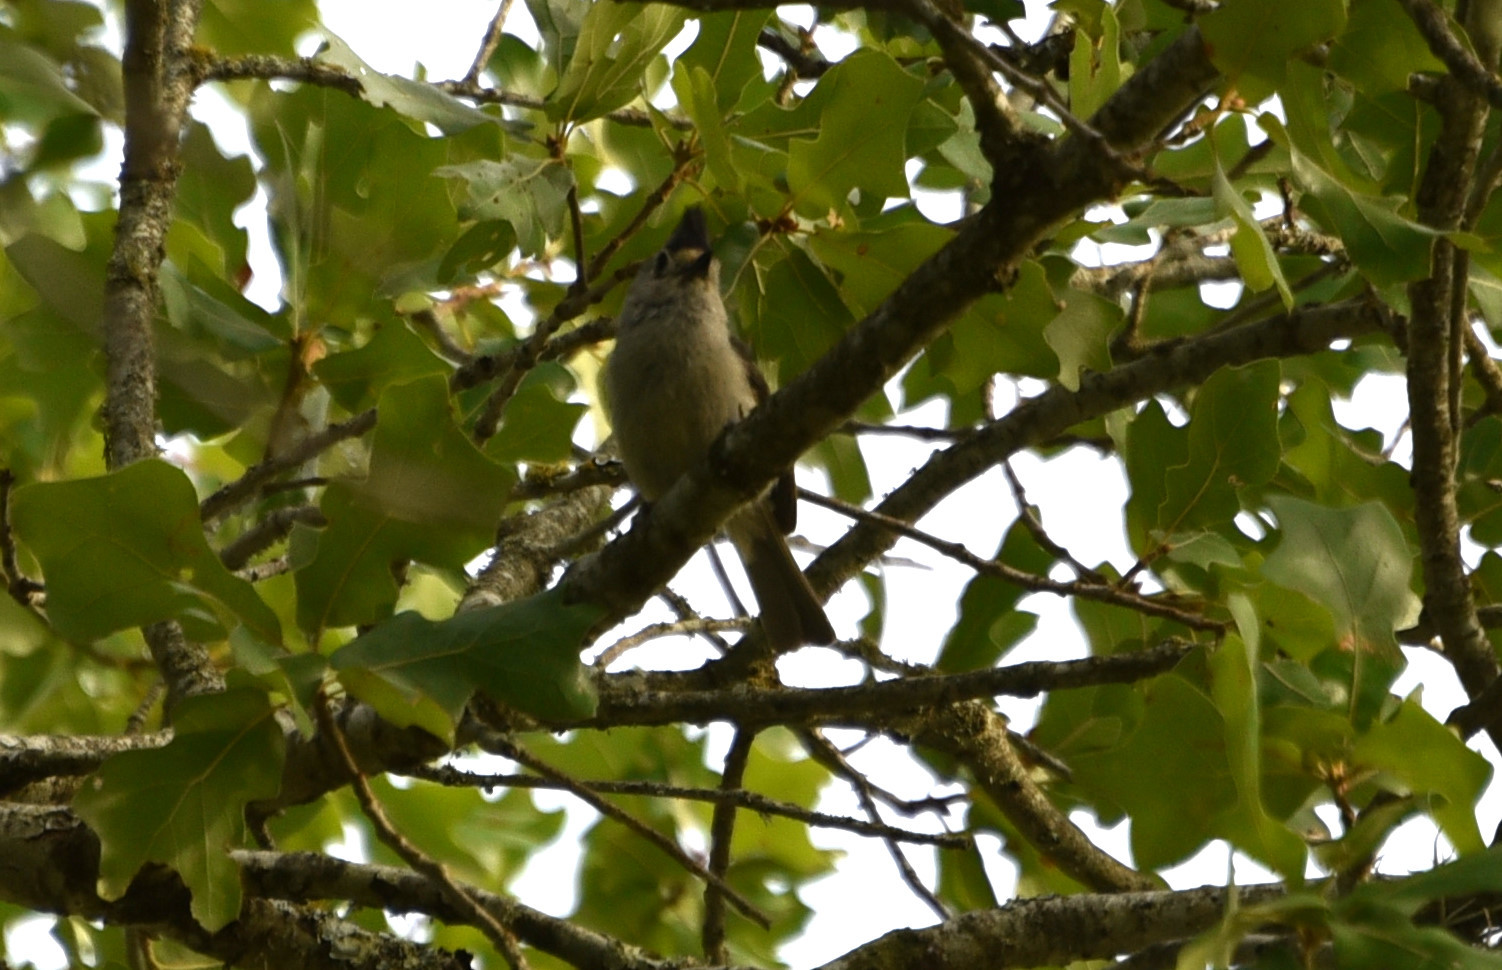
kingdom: Animalia
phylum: Chordata
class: Aves
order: Passeriformes
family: Paridae
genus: Baeolophus
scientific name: Baeolophus atricristatus
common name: Black-crested titmouse
